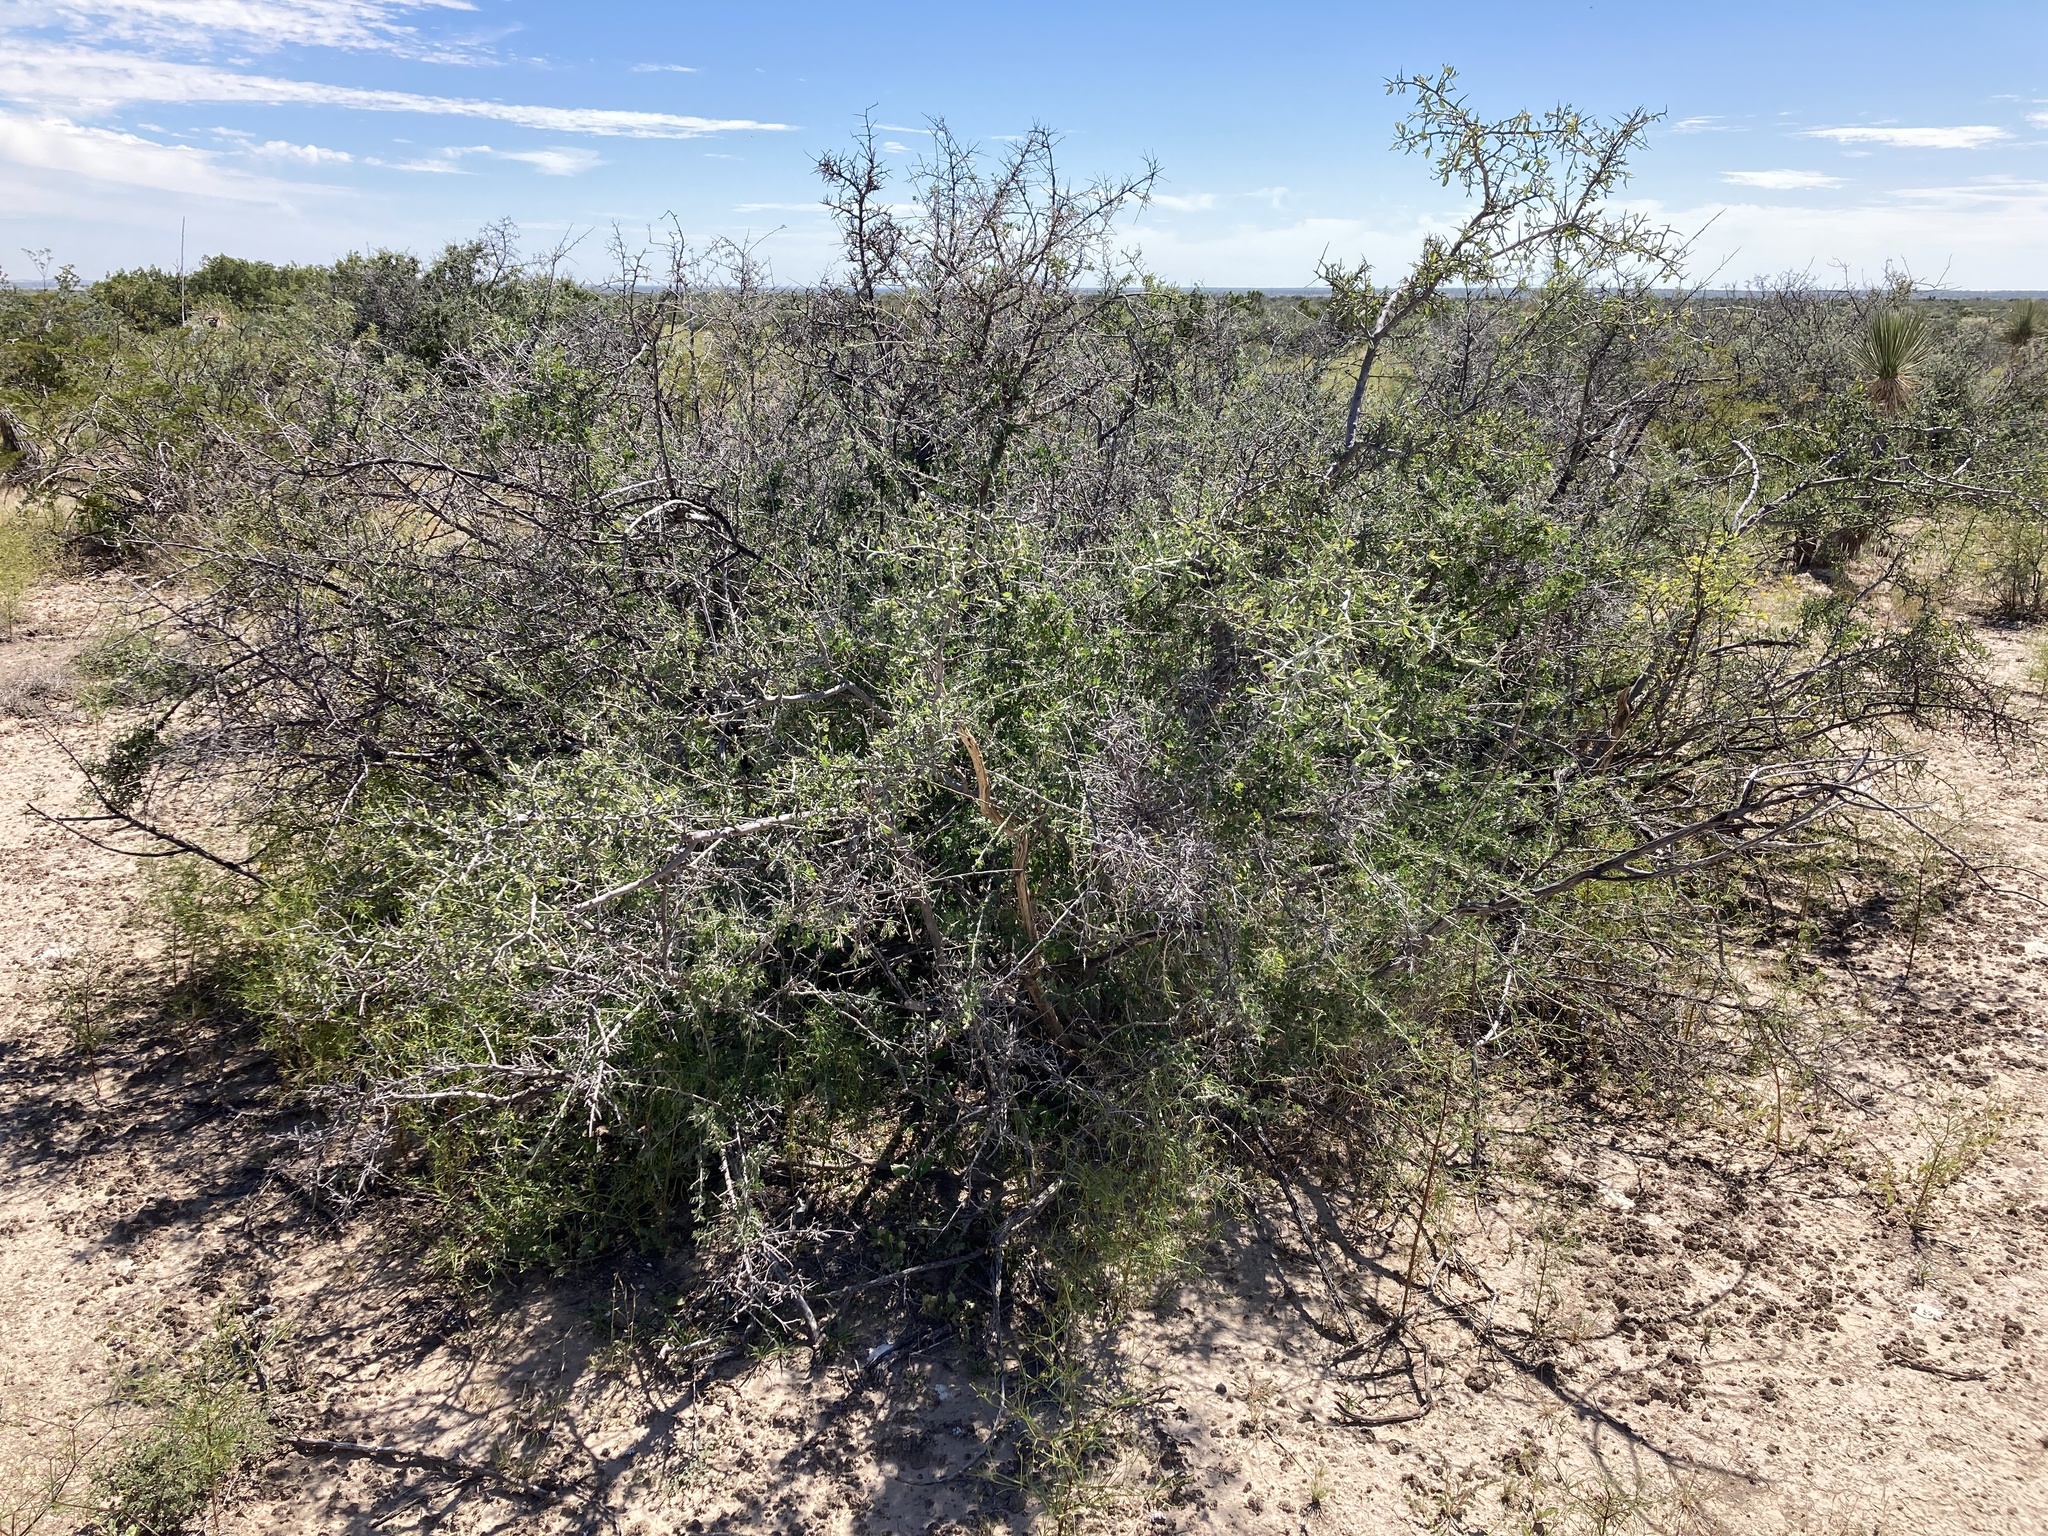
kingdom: Plantae
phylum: Tracheophyta
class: Magnoliopsida
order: Rosales
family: Rhamnaceae
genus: Sarcomphalus
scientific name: Sarcomphalus obtusifolius
